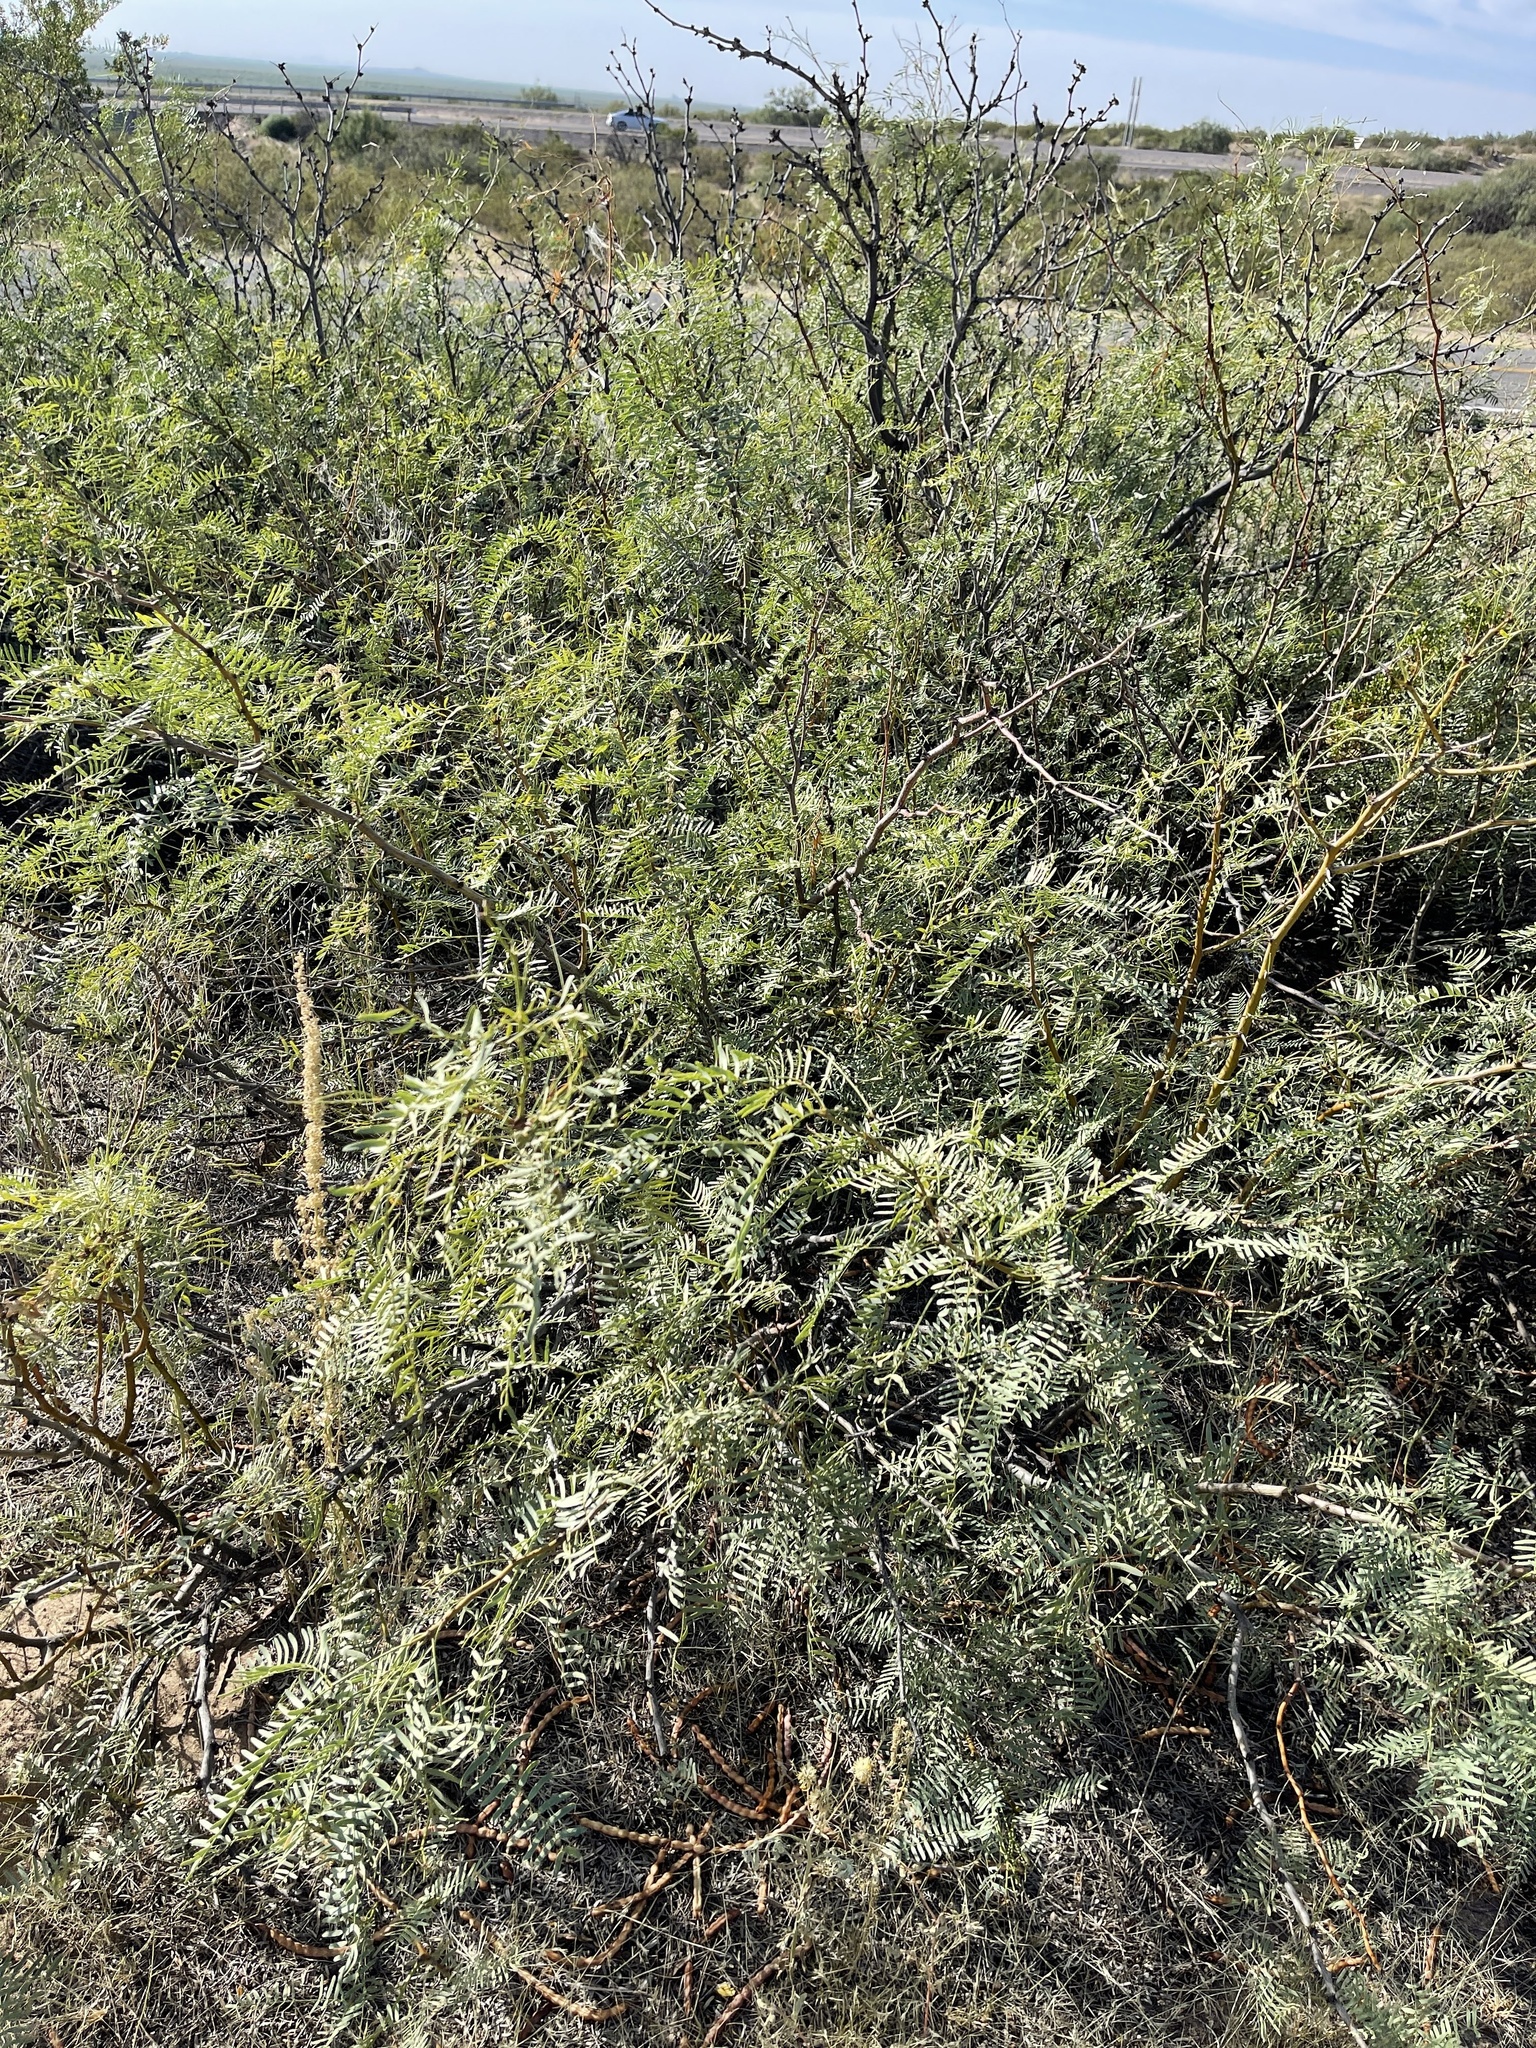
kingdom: Plantae
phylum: Tracheophyta
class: Magnoliopsida
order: Fabales
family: Fabaceae
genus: Prosopis
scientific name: Prosopis glandulosa
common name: Honey mesquite
